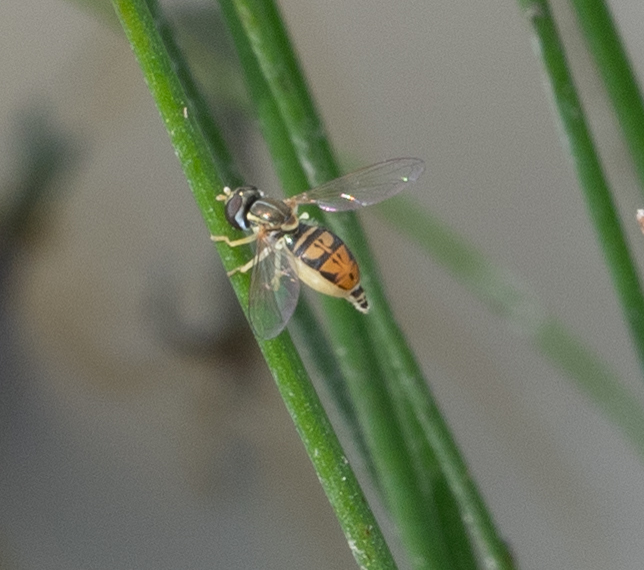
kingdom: Animalia
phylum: Arthropoda
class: Insecta
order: Diptera
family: Syrphidae
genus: Toxomerus
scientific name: Toxomerus marginatus
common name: Syrphid fly
